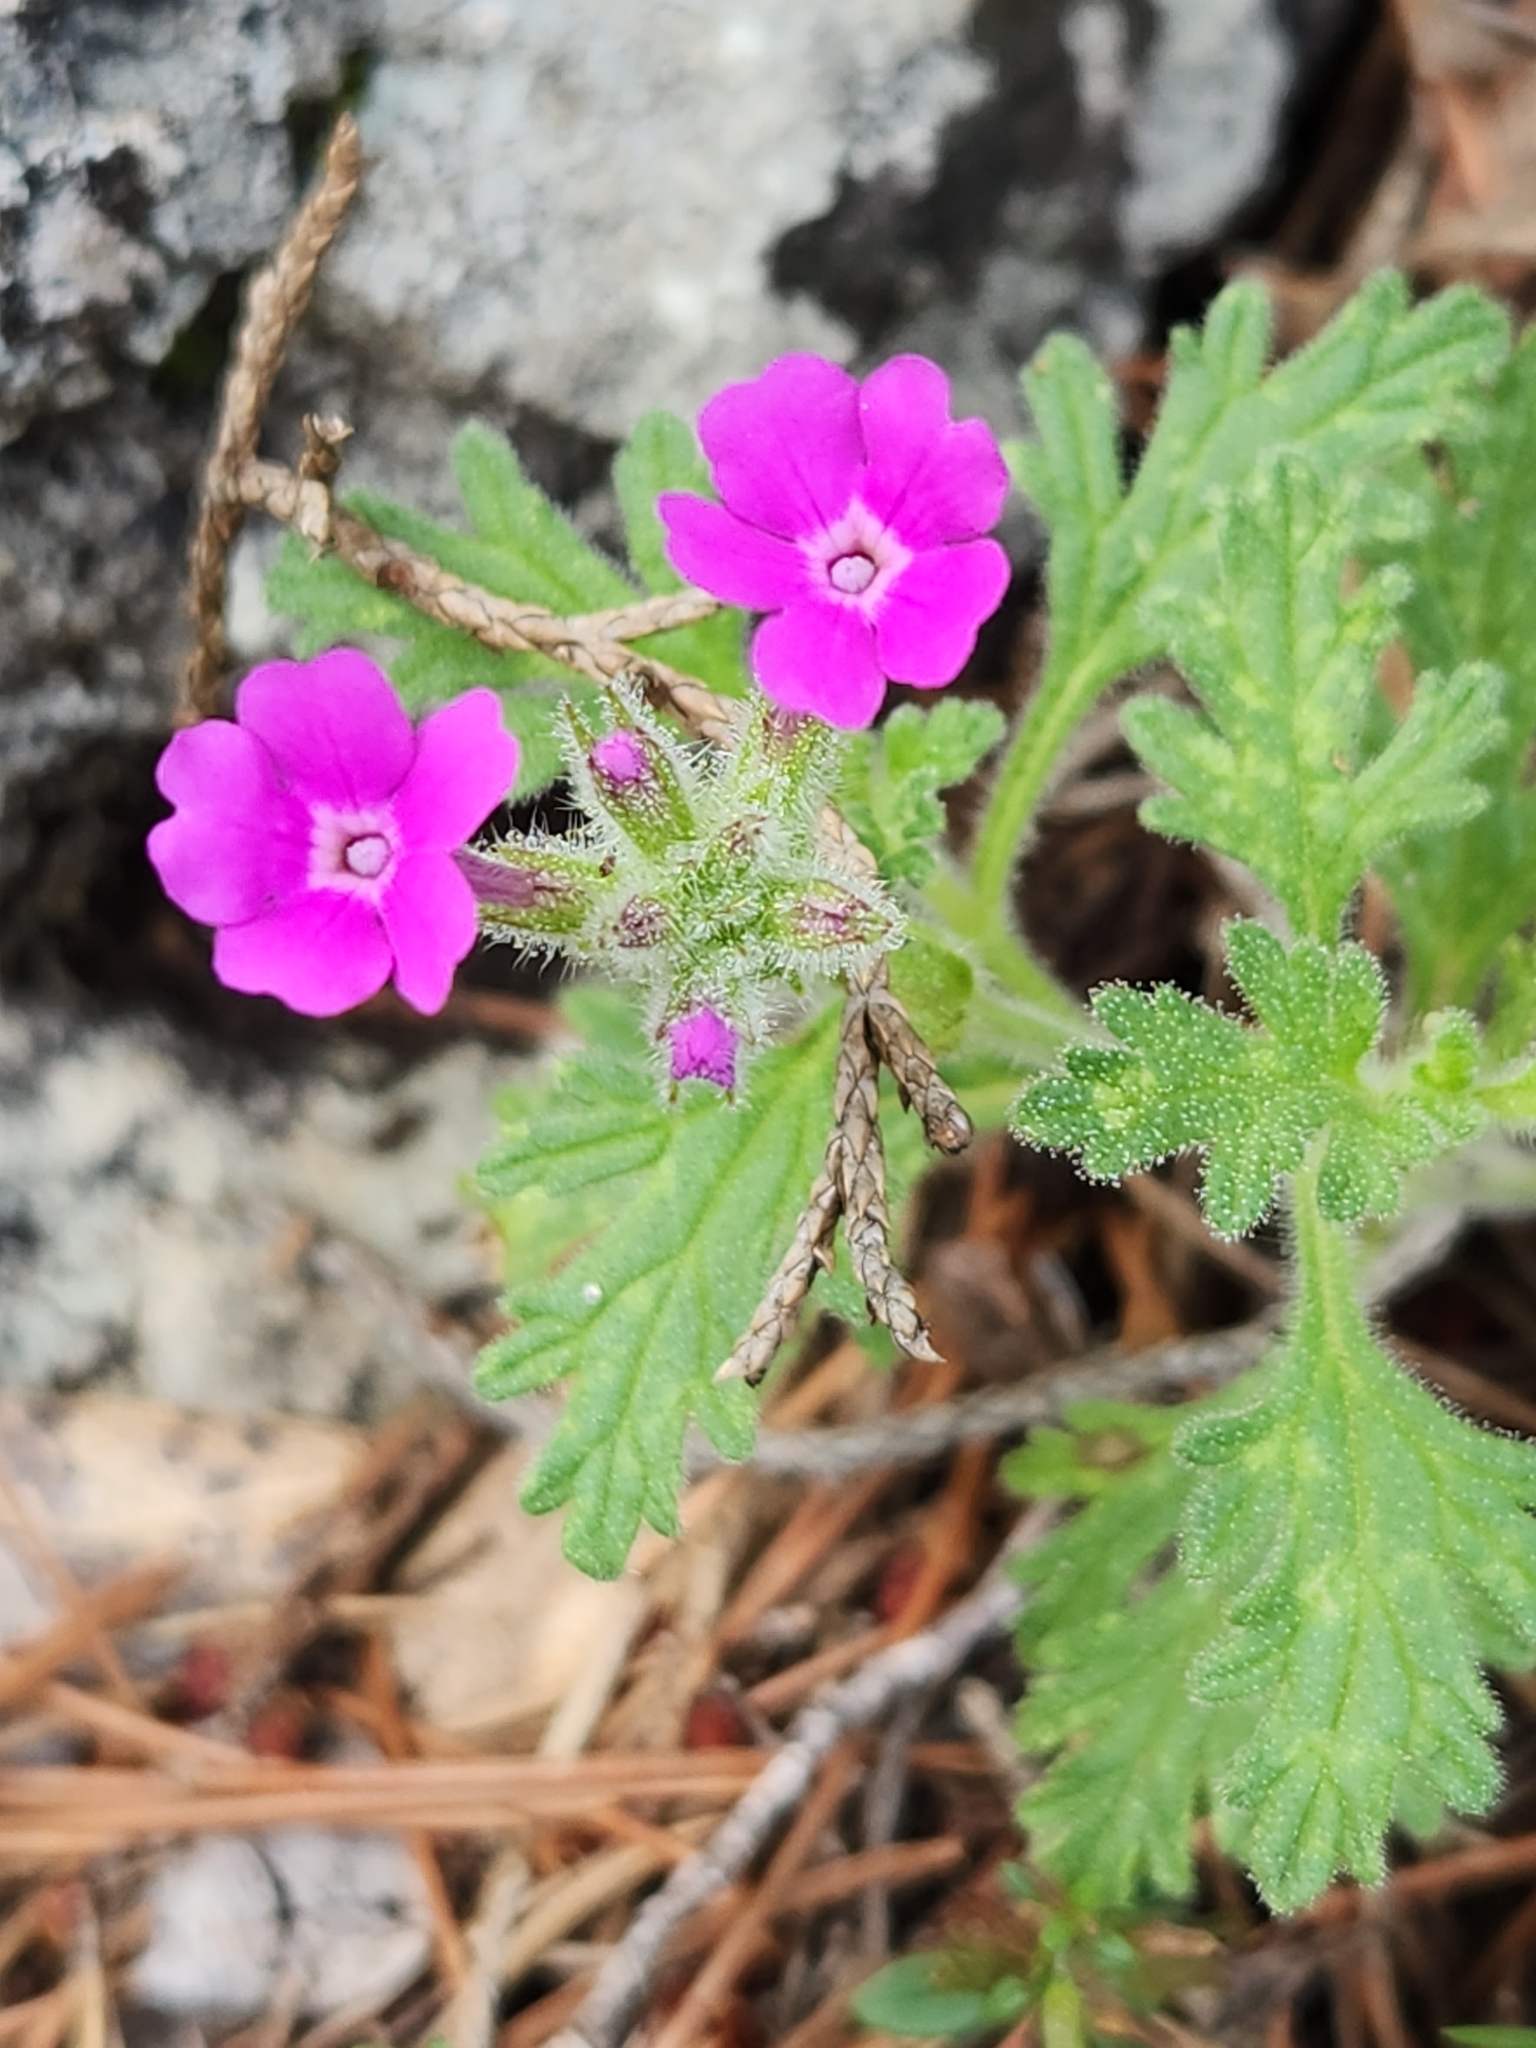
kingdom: Plantae
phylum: Tracheophyta
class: Magnoliopsida
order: Lamiales
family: Verbenaceae
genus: Verbena
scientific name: Verbena pumila
